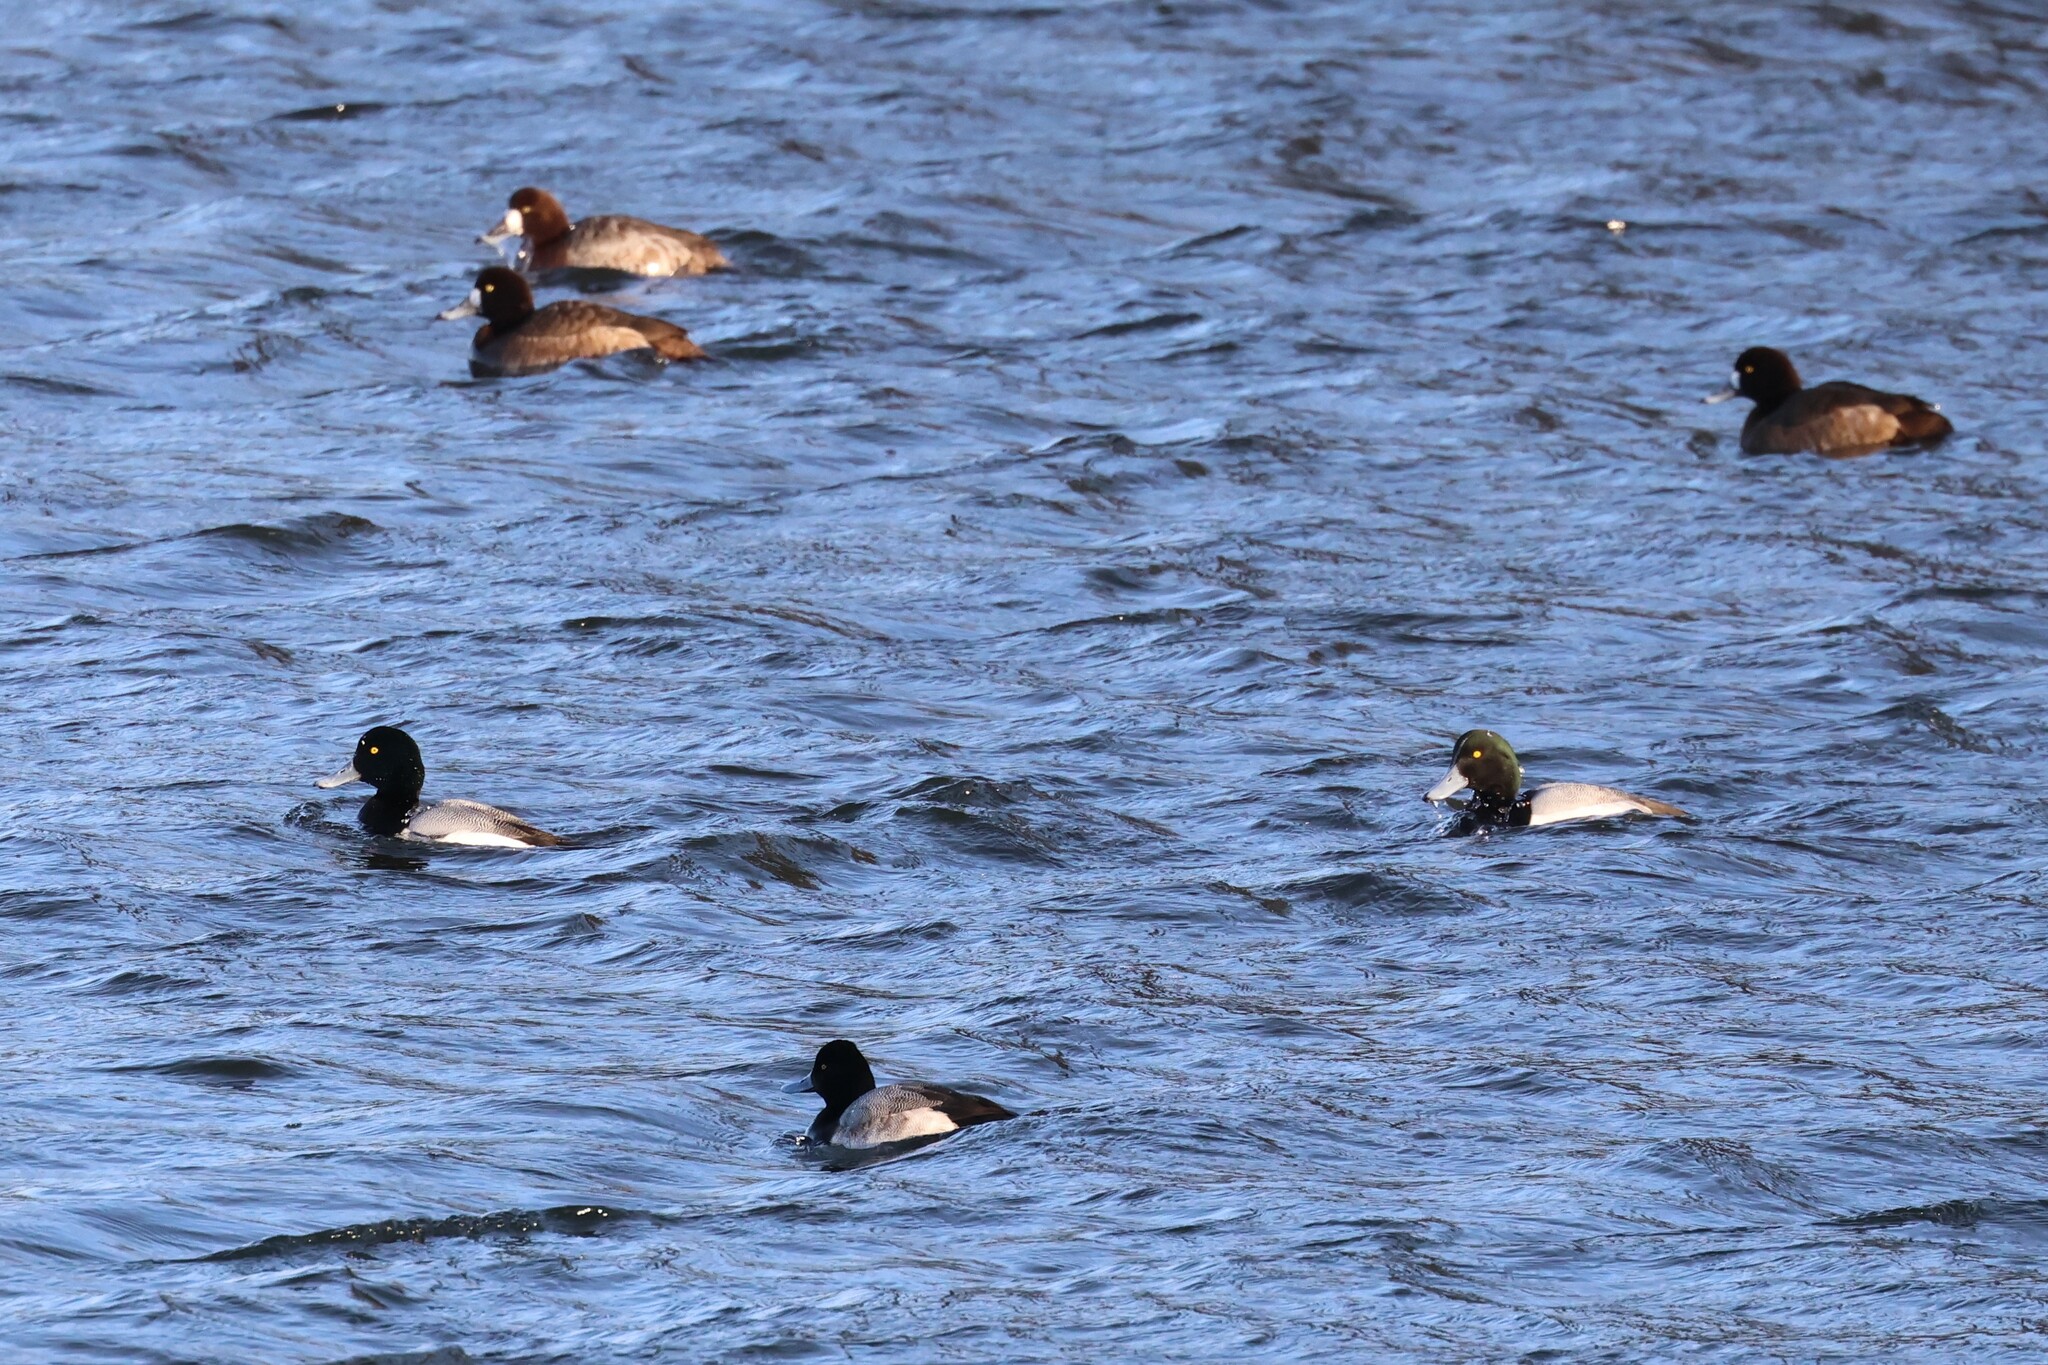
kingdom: Animalia
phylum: Chordata
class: Aves
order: Anseriformes
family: Anatidae
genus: Aythya
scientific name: Aythya marila
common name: Greater scaup
